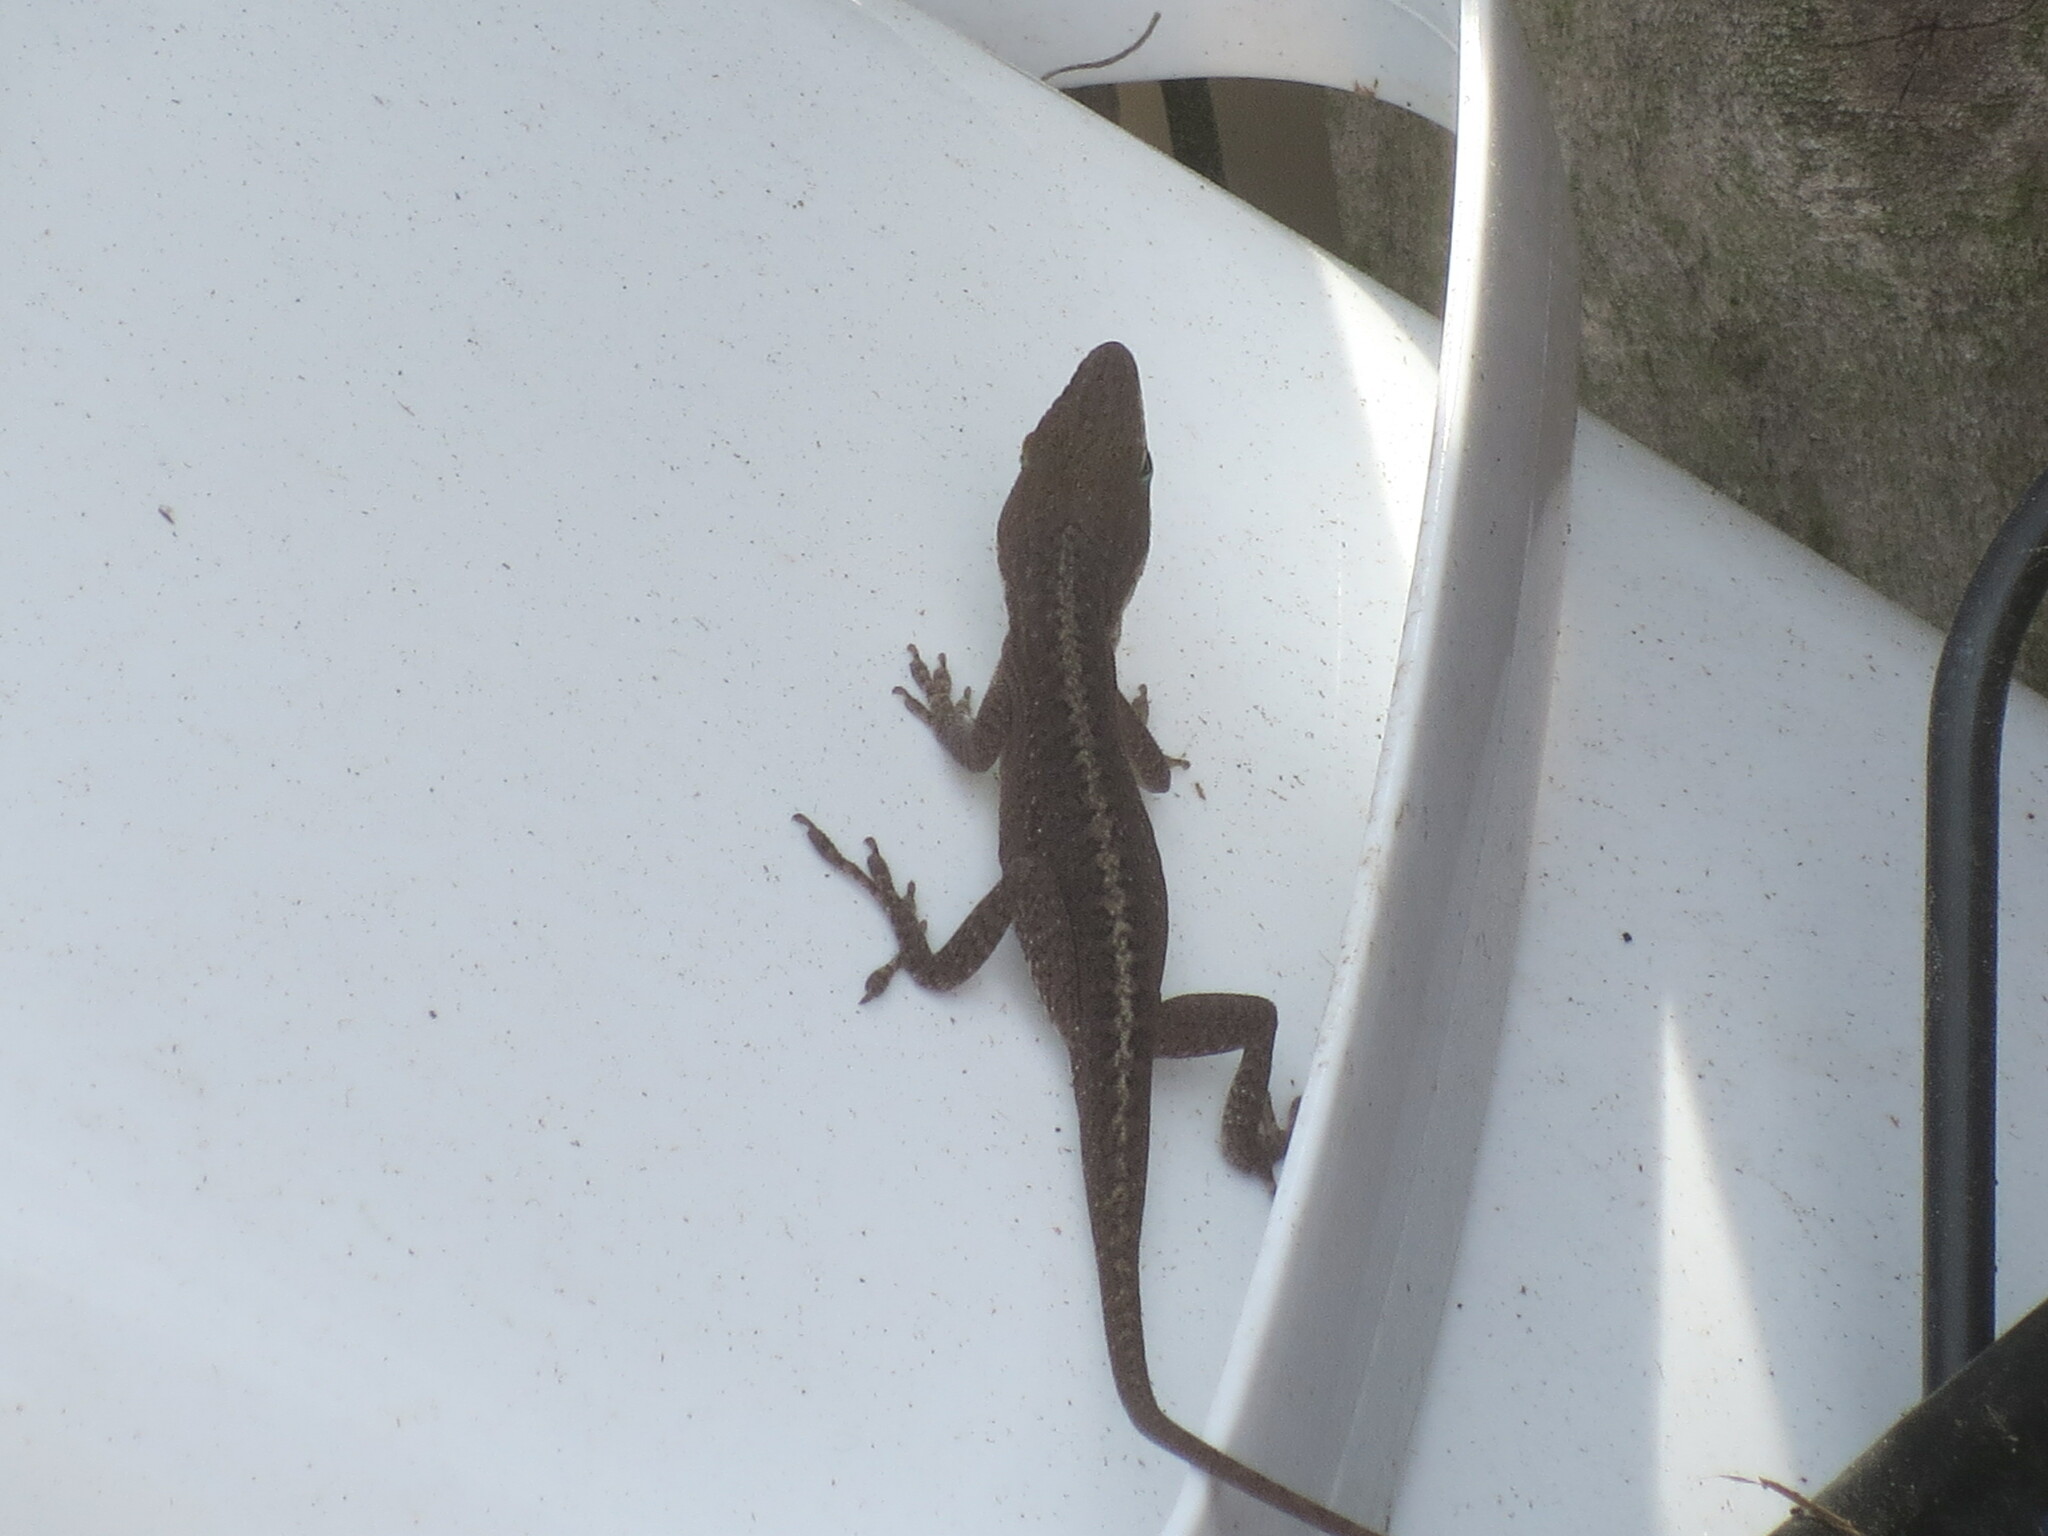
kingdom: Animalia
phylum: Chordata
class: Squamata
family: Dactyloidae
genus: Anolis
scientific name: Anolis carolinensis
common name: Green anole
